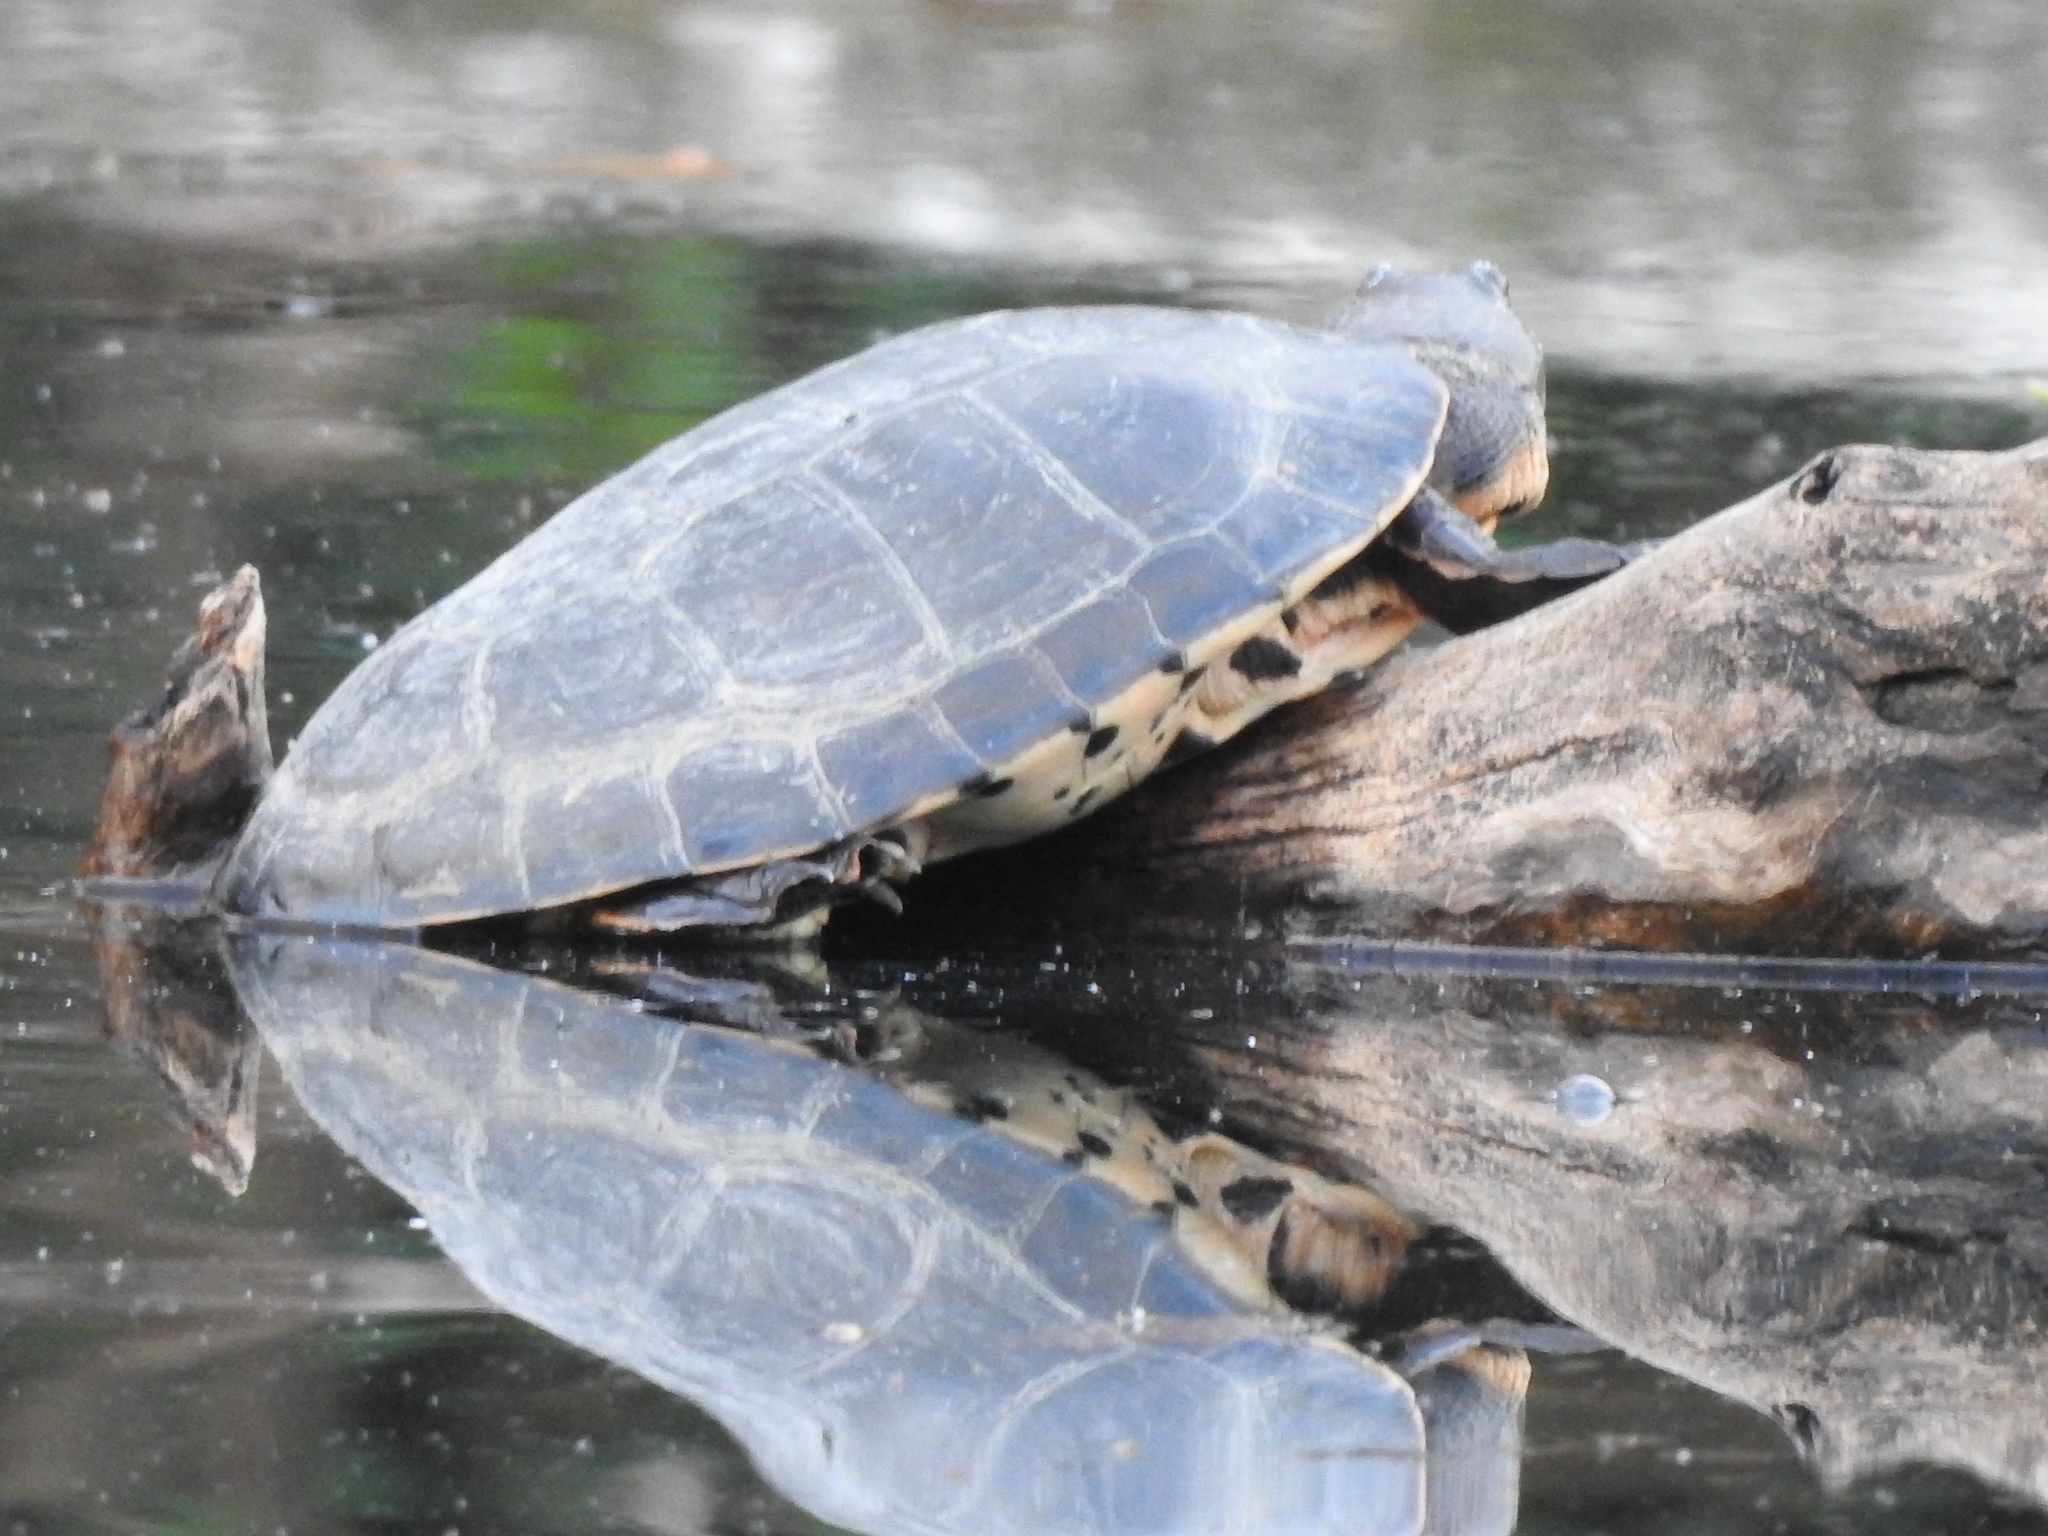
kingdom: Animalia
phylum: Chordata
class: Testudines
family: Chelidae
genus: Phrynops
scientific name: Phrynops hilarii
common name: Side-necked turtle of saint hillaire
